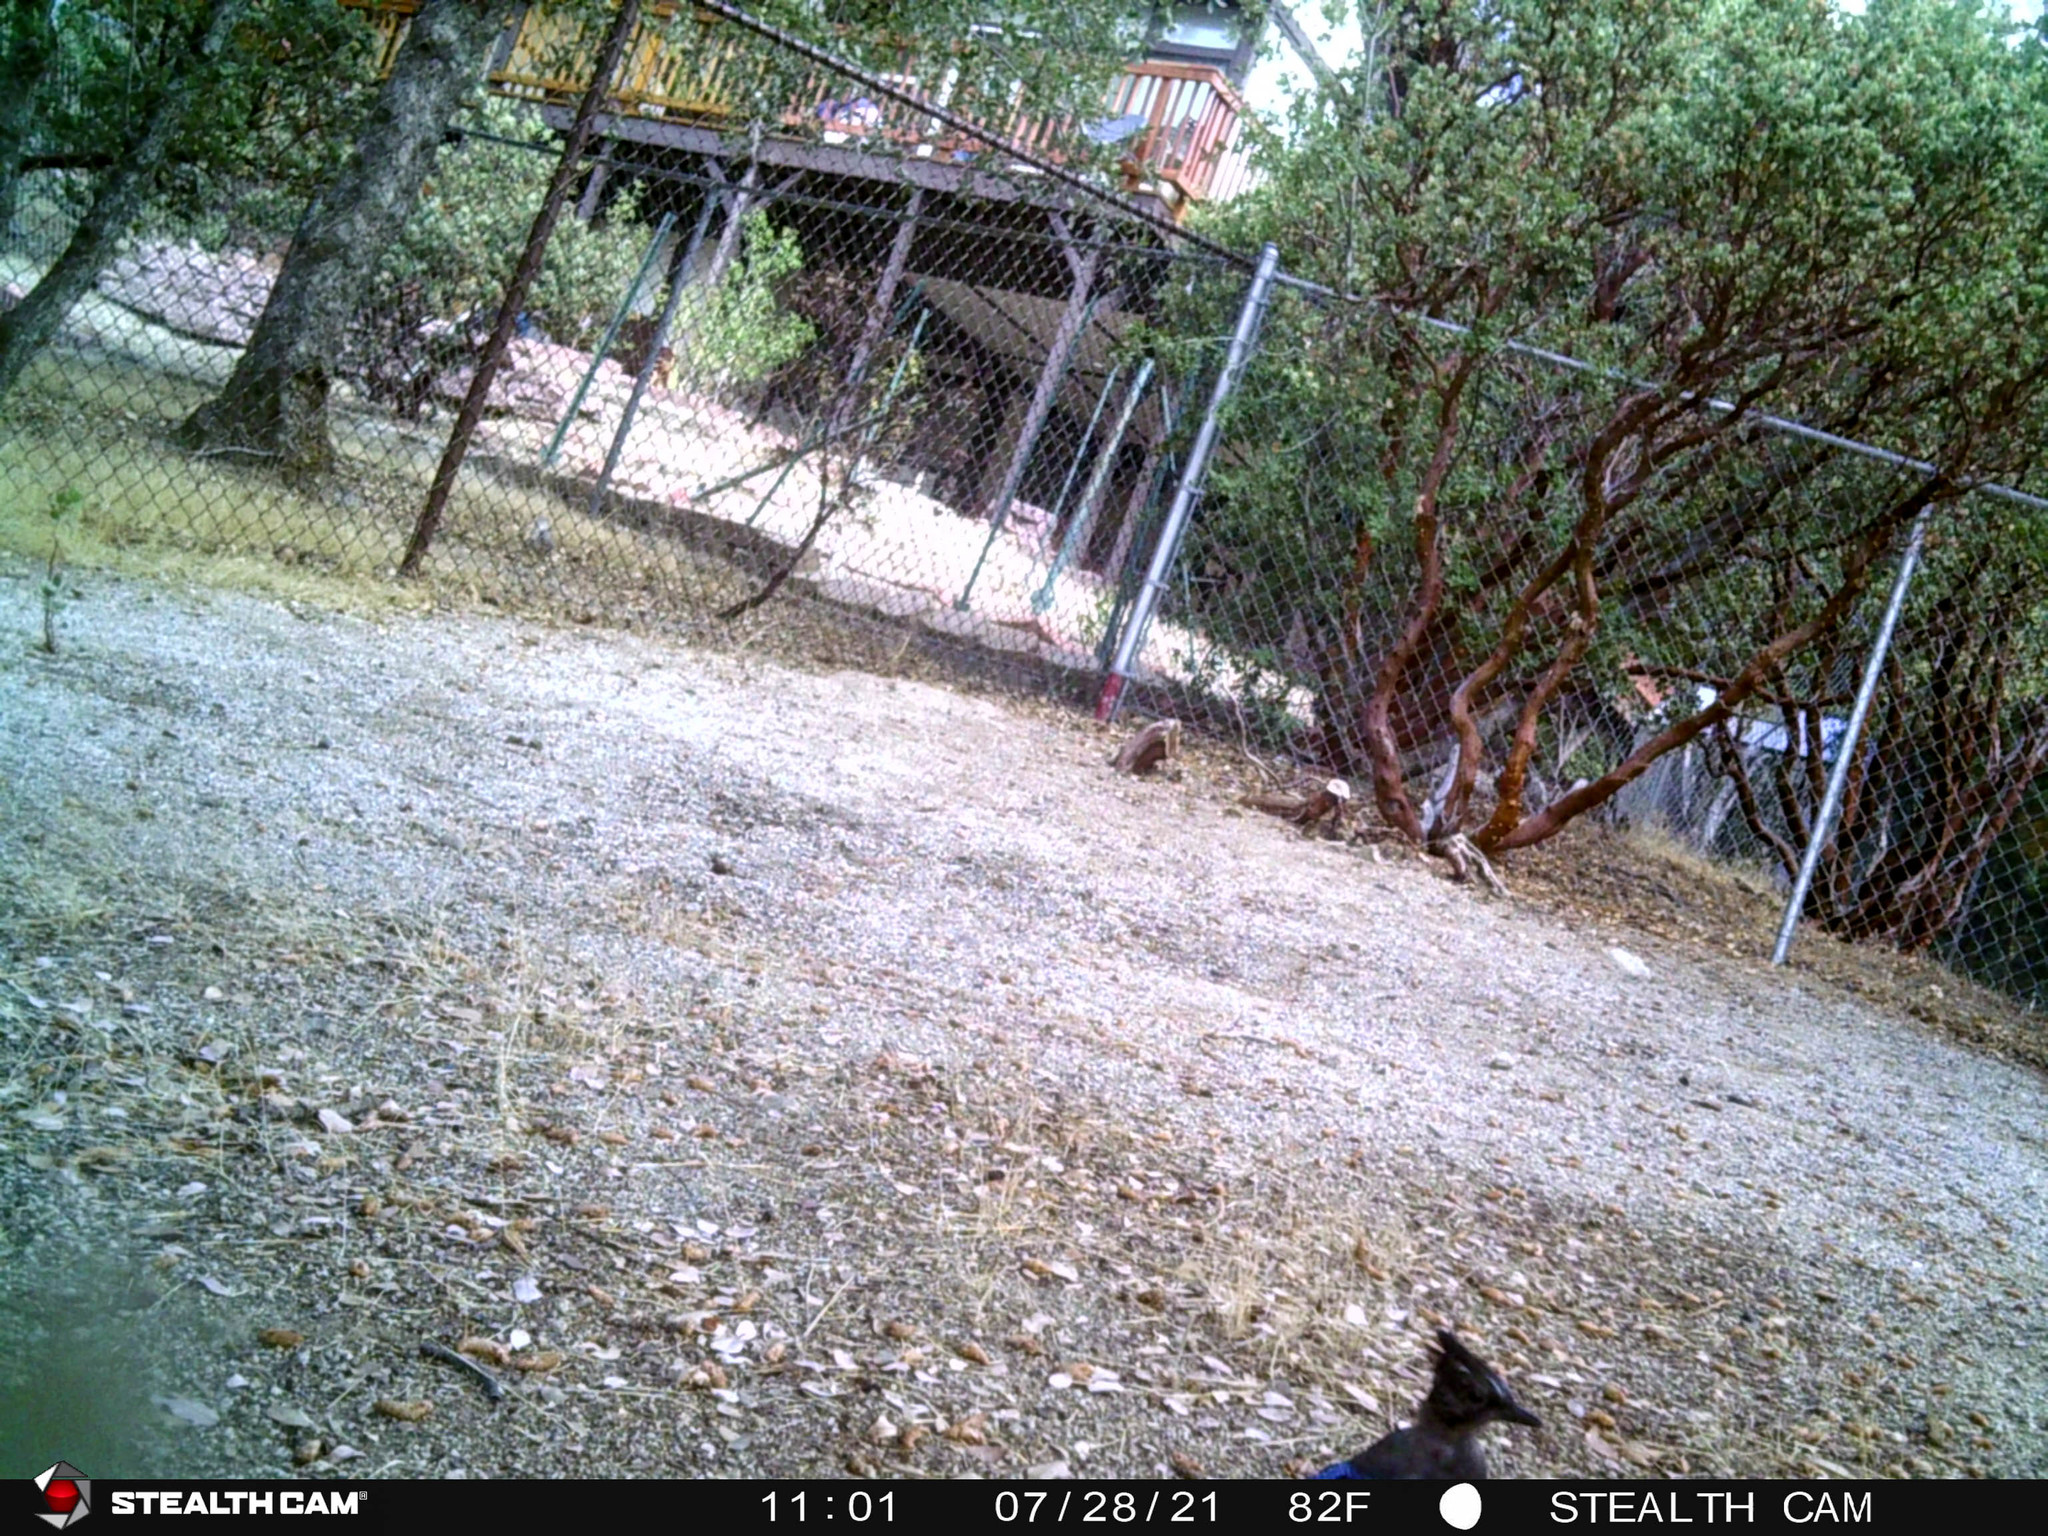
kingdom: Animalia
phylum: Chordata
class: Aves
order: Passeriformes
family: Corvidae
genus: Cyanocitta
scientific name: Cyanocitta stelleri
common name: Steller's jay
